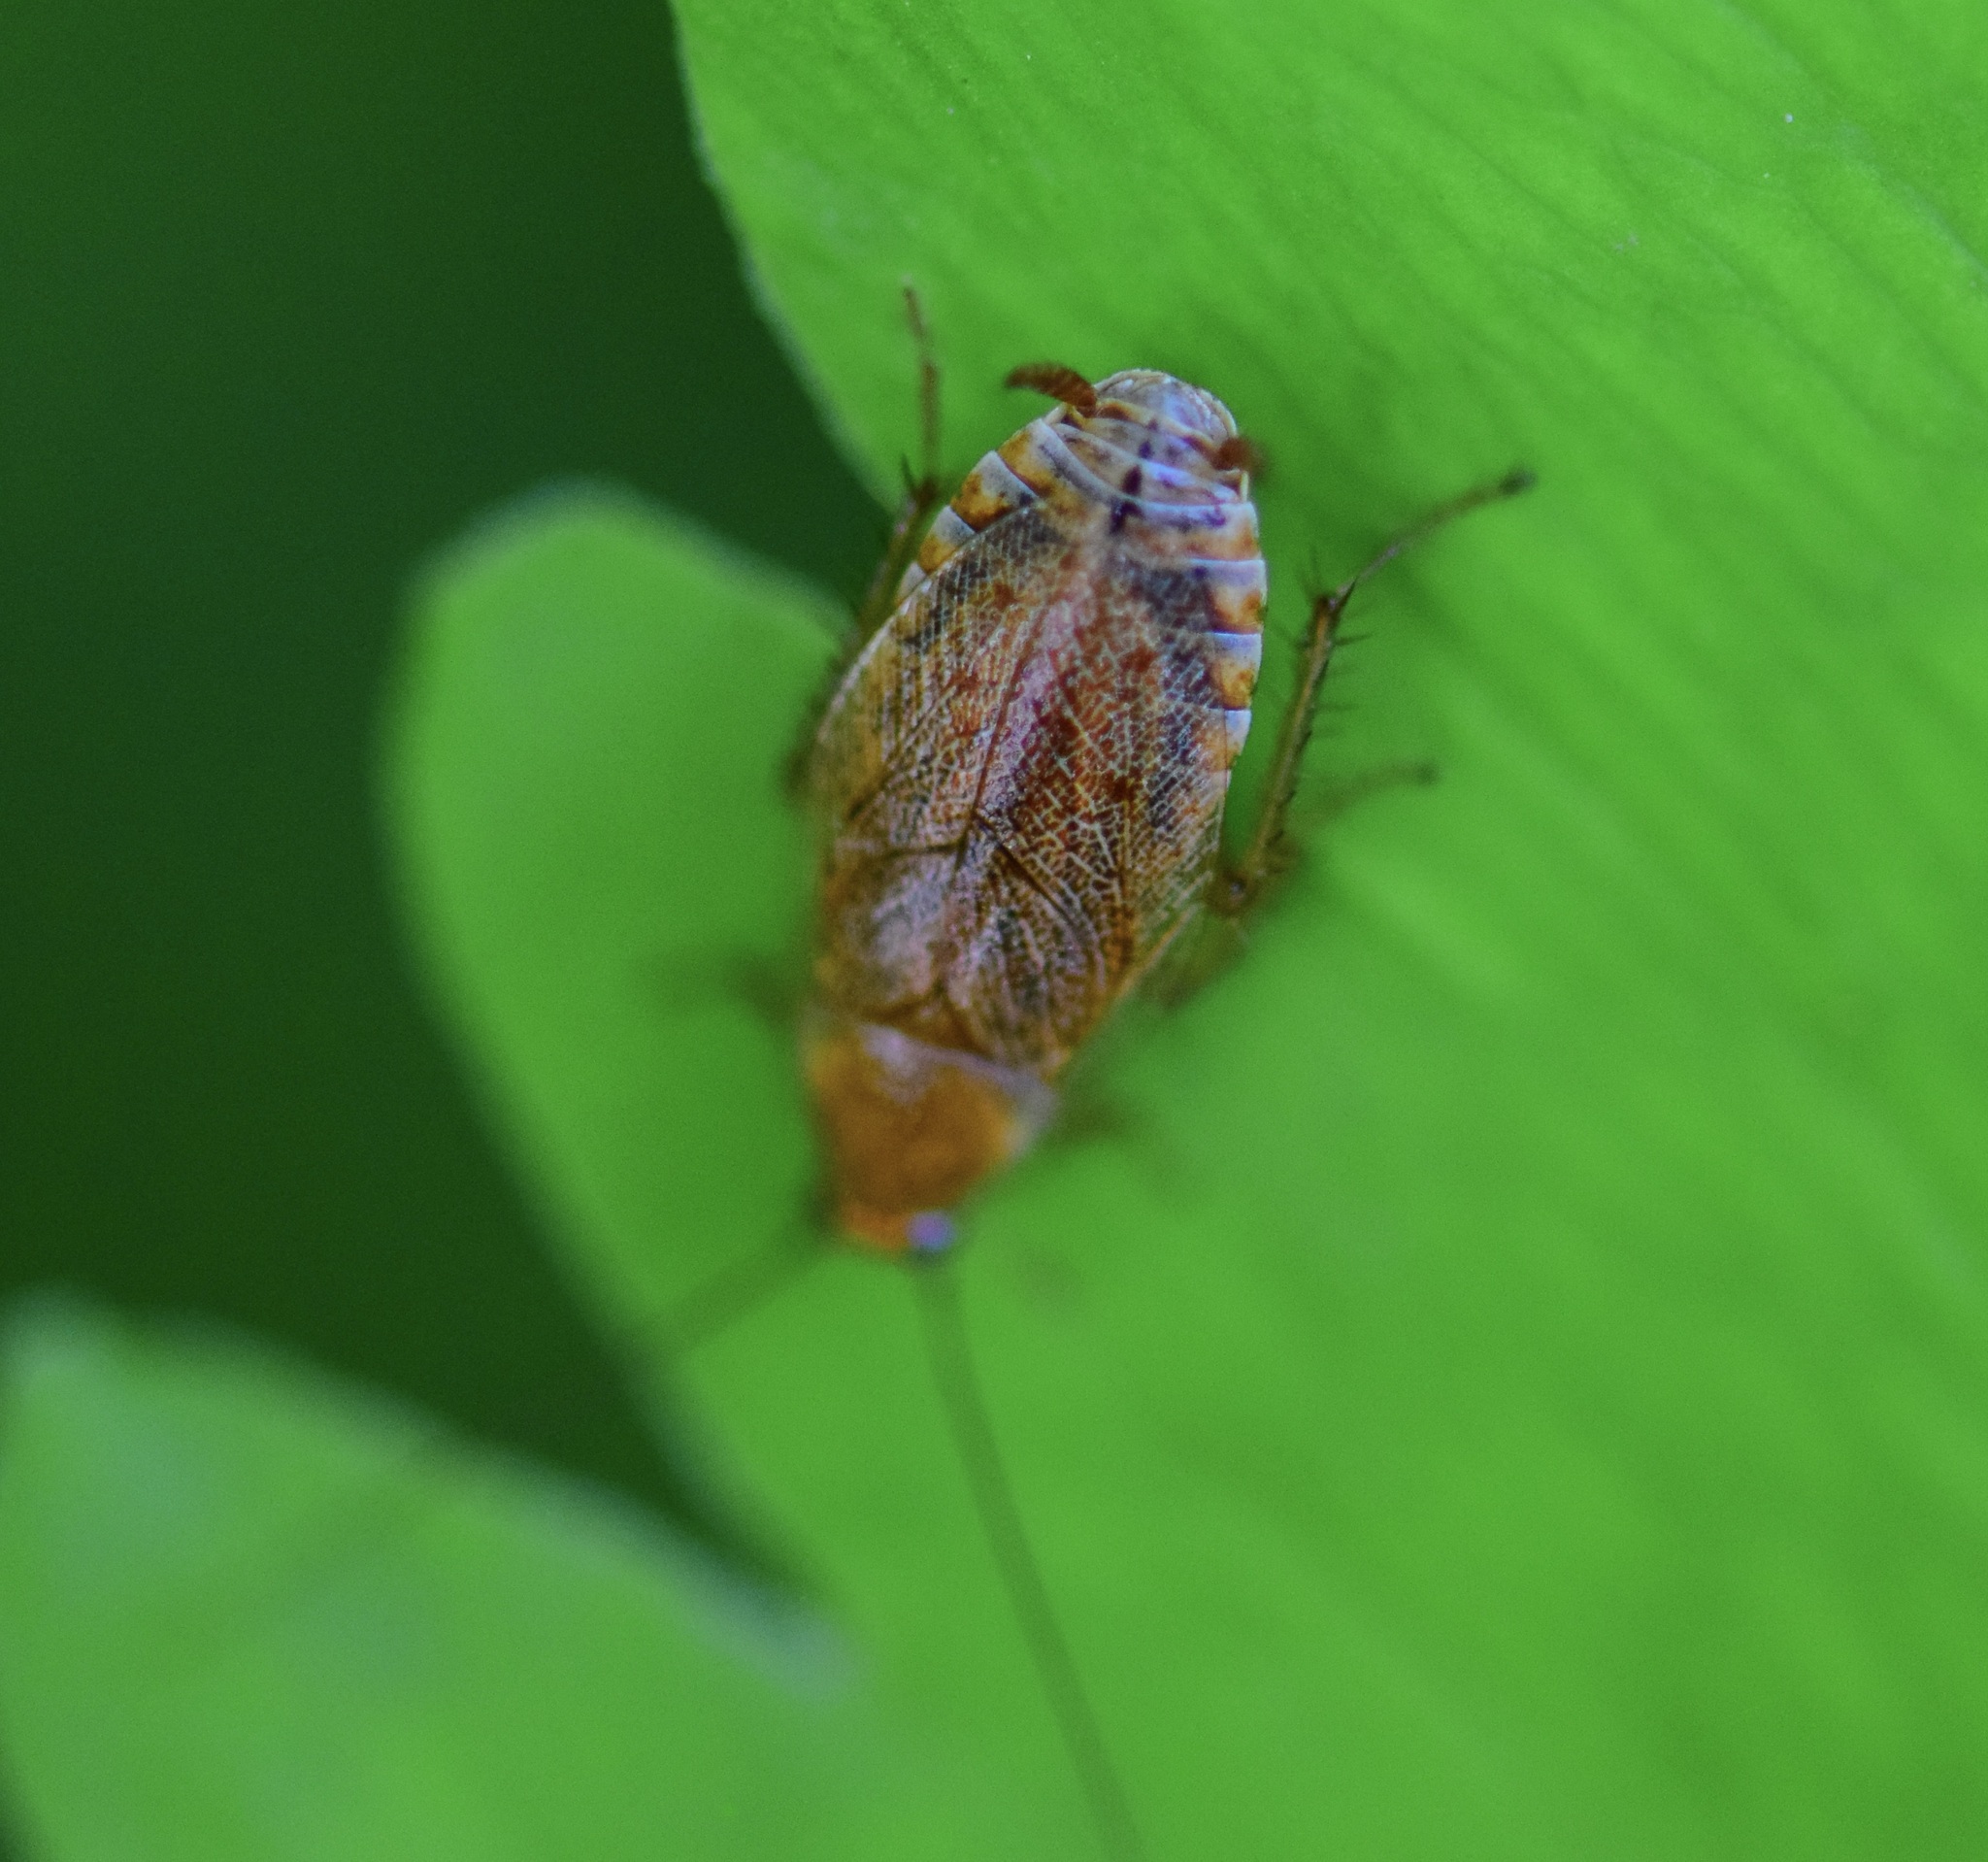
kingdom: Animalia
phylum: Arthropoda
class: Insecta
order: Blattodea
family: Ectobiidae
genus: Ectobius
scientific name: Ectobius lapponicus
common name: Dusky cockroach
